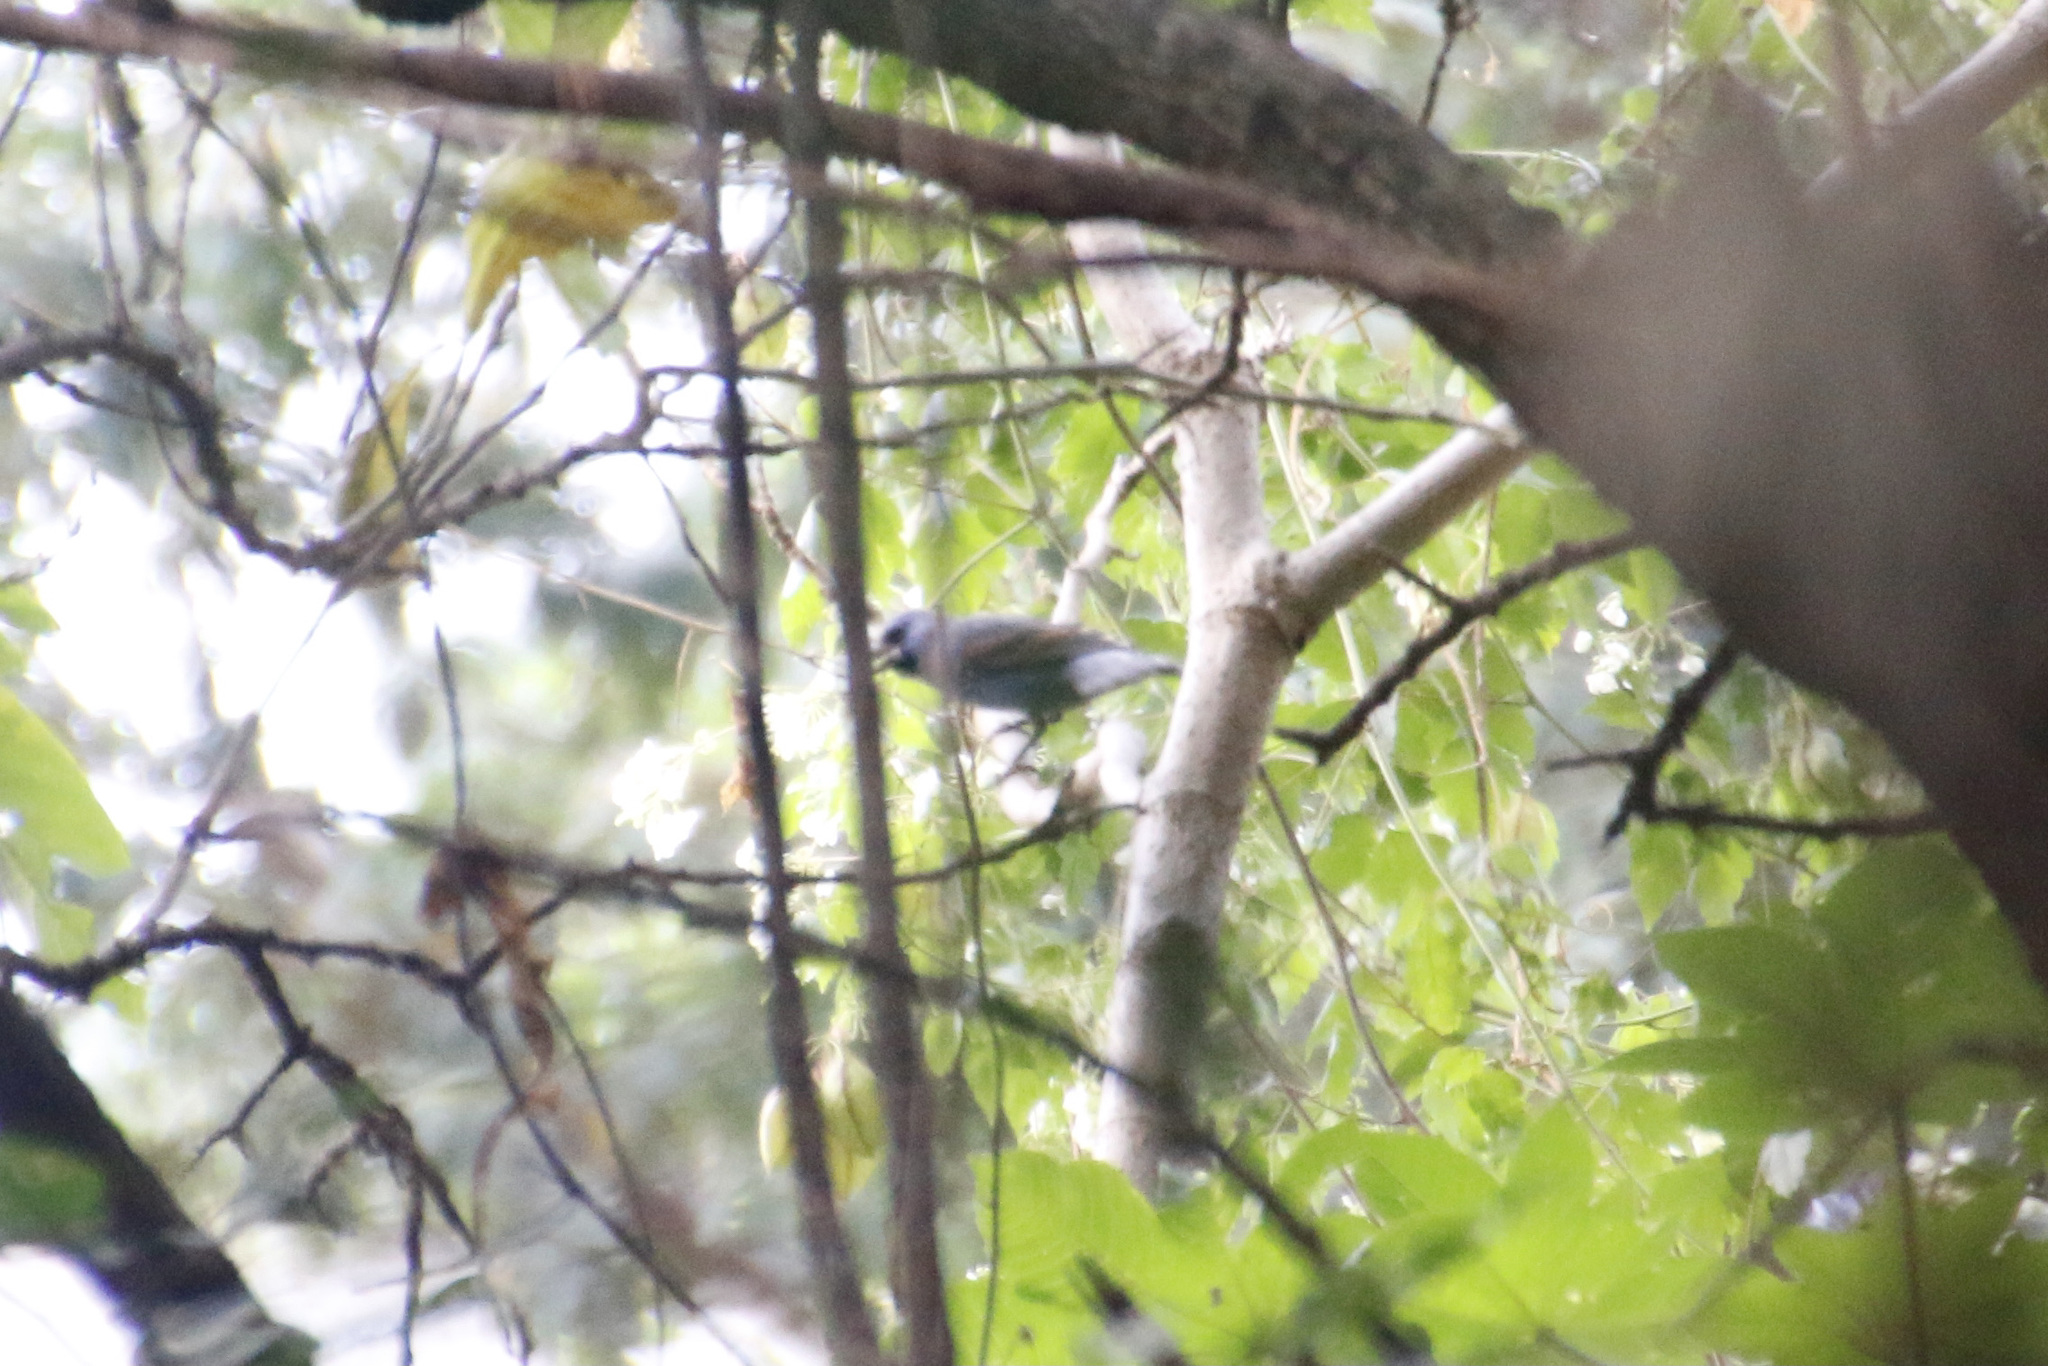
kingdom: Animalia
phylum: Chordata
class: Aves
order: Passeriformes
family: Cardinalidae
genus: Passerina
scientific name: Passerina caerulea
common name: Blue grosbeak
